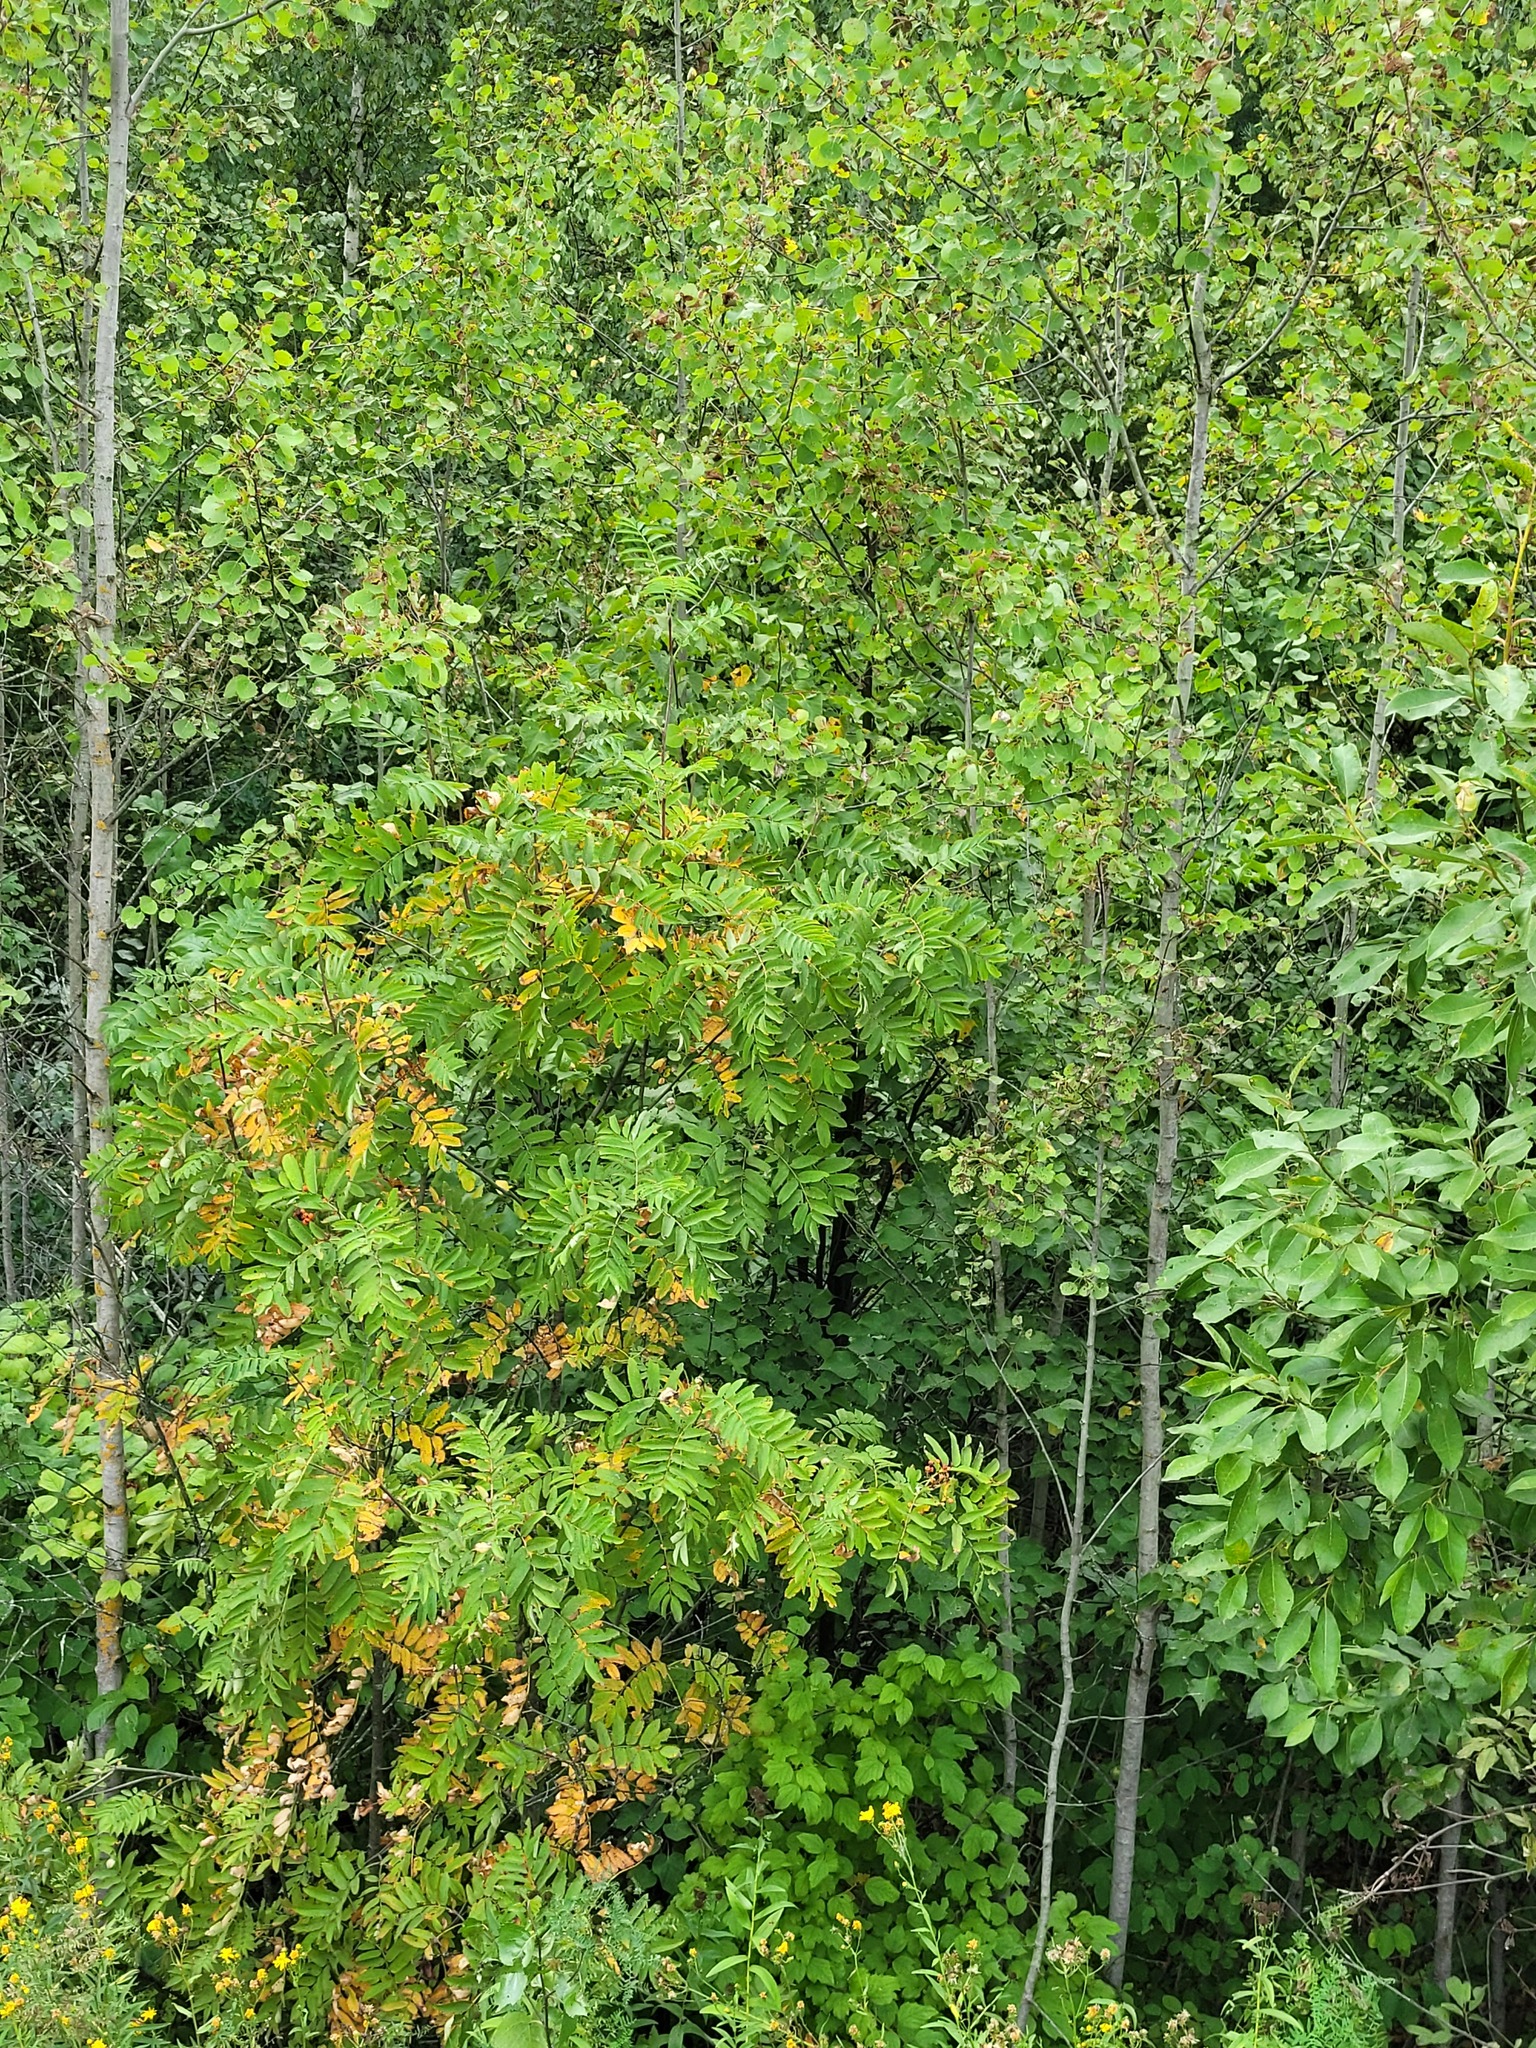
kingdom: Plantae
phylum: Tracheophyta
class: Magnoliopsida
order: Rosales
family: Rosaceae
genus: Sorbus
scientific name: Sorbus aucuparia
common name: Rowan
